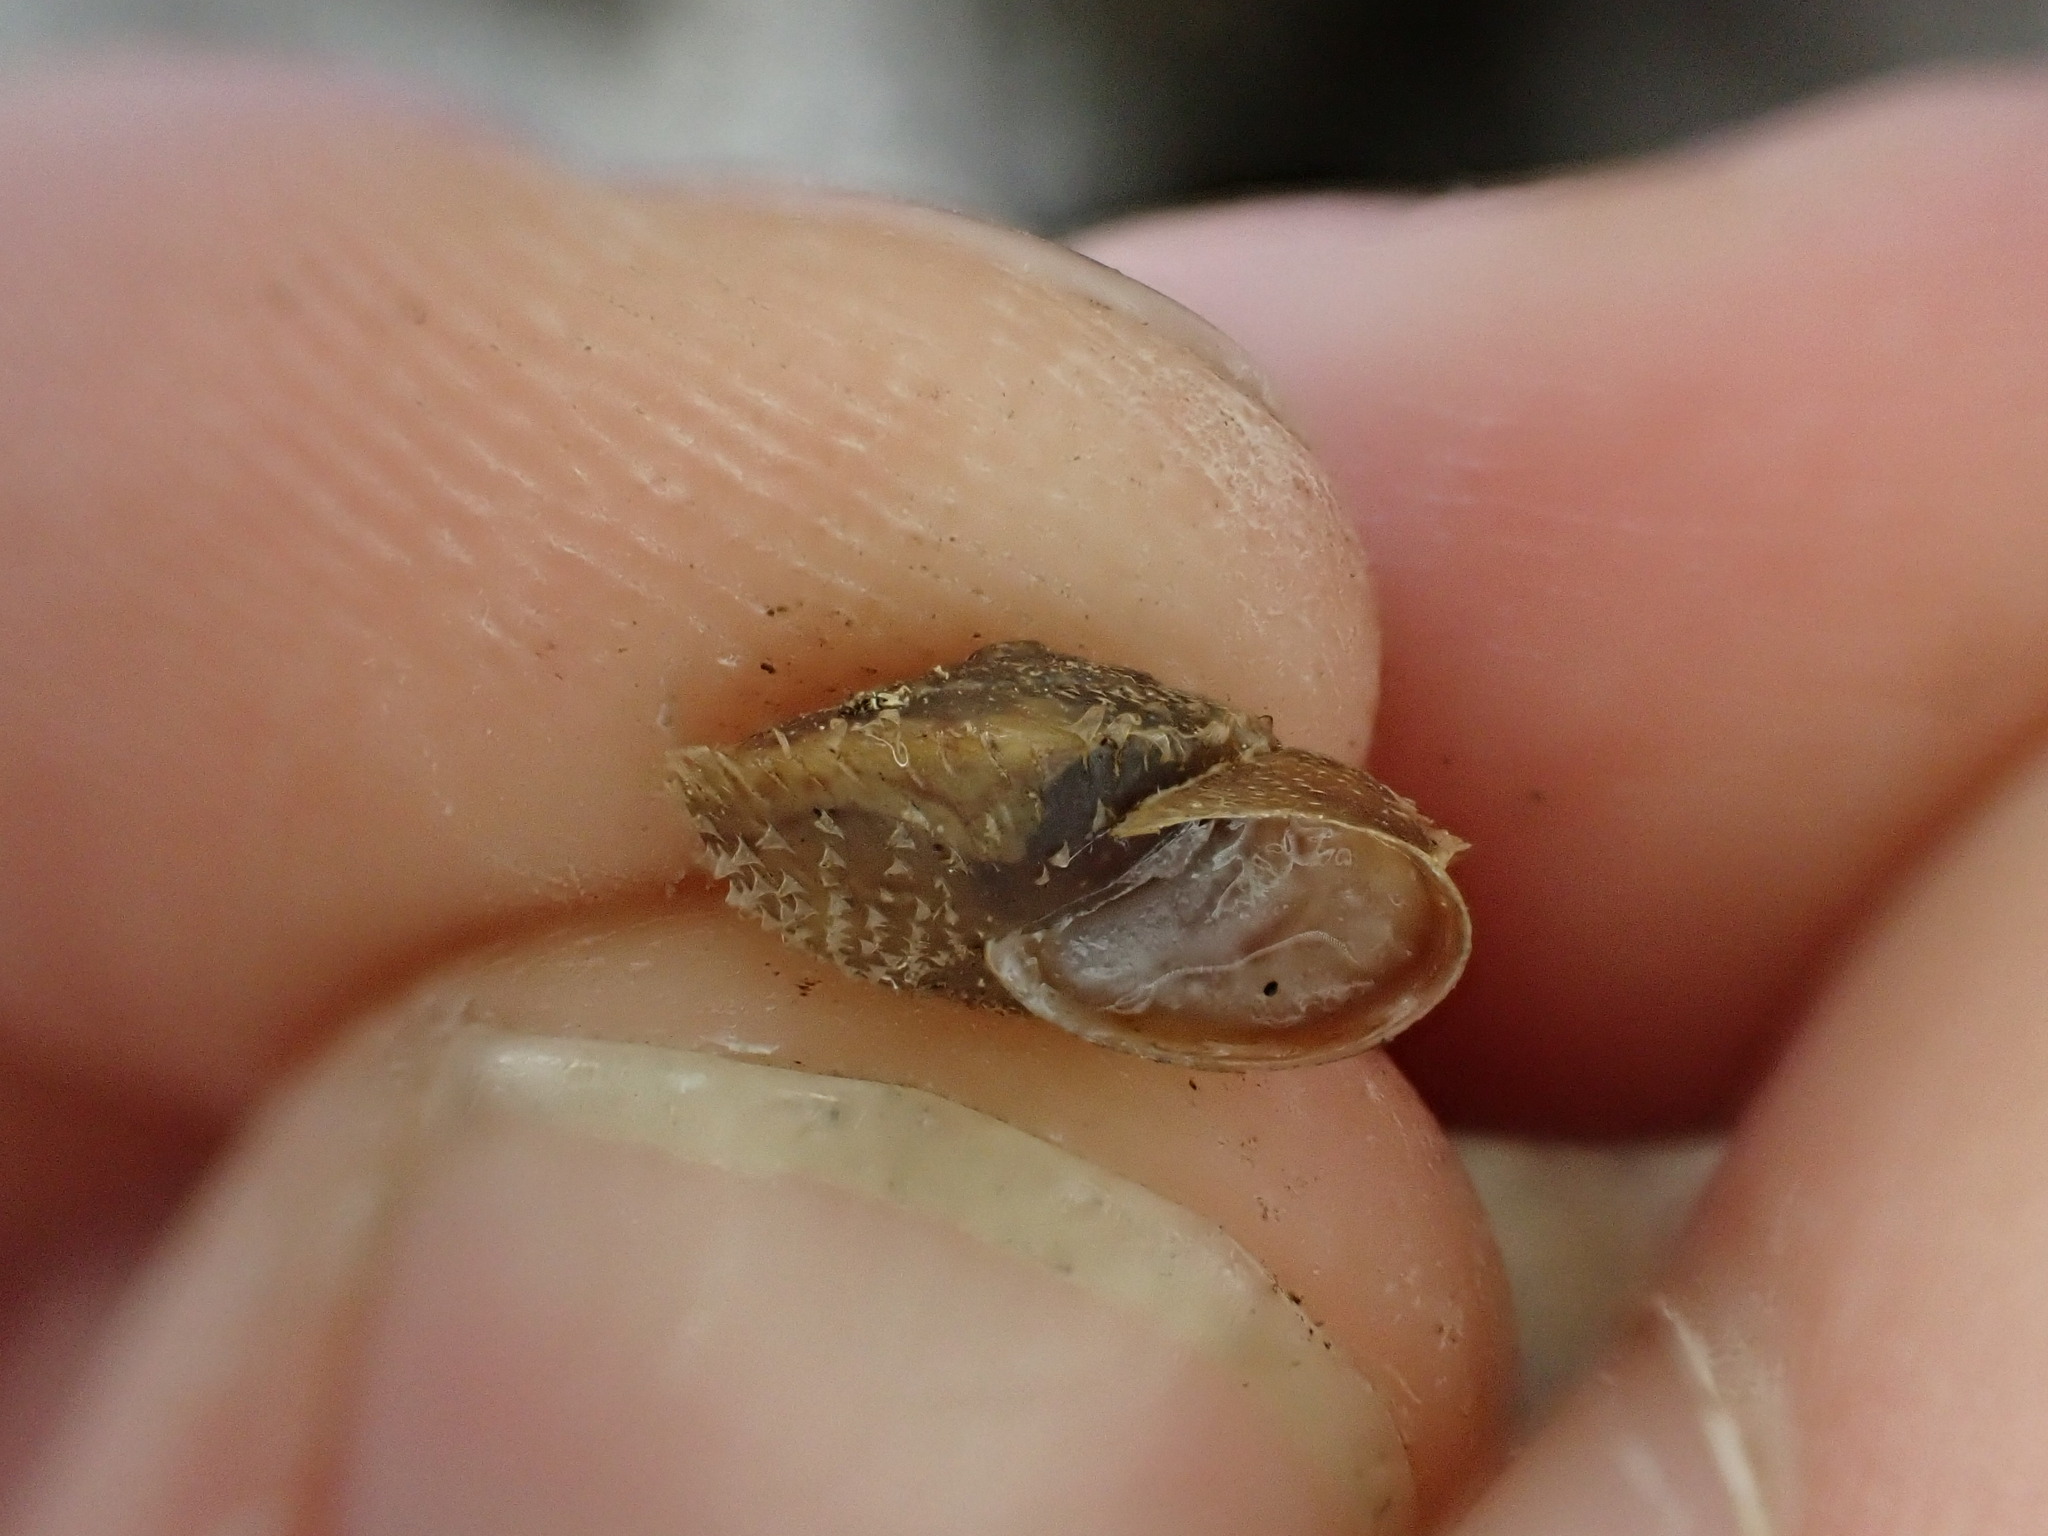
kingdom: Animalia
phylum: Mollusca
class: Gastropoda
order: Stylommatophora
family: Hygromiidae
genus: Ciliella
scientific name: Ciliella ciliata
